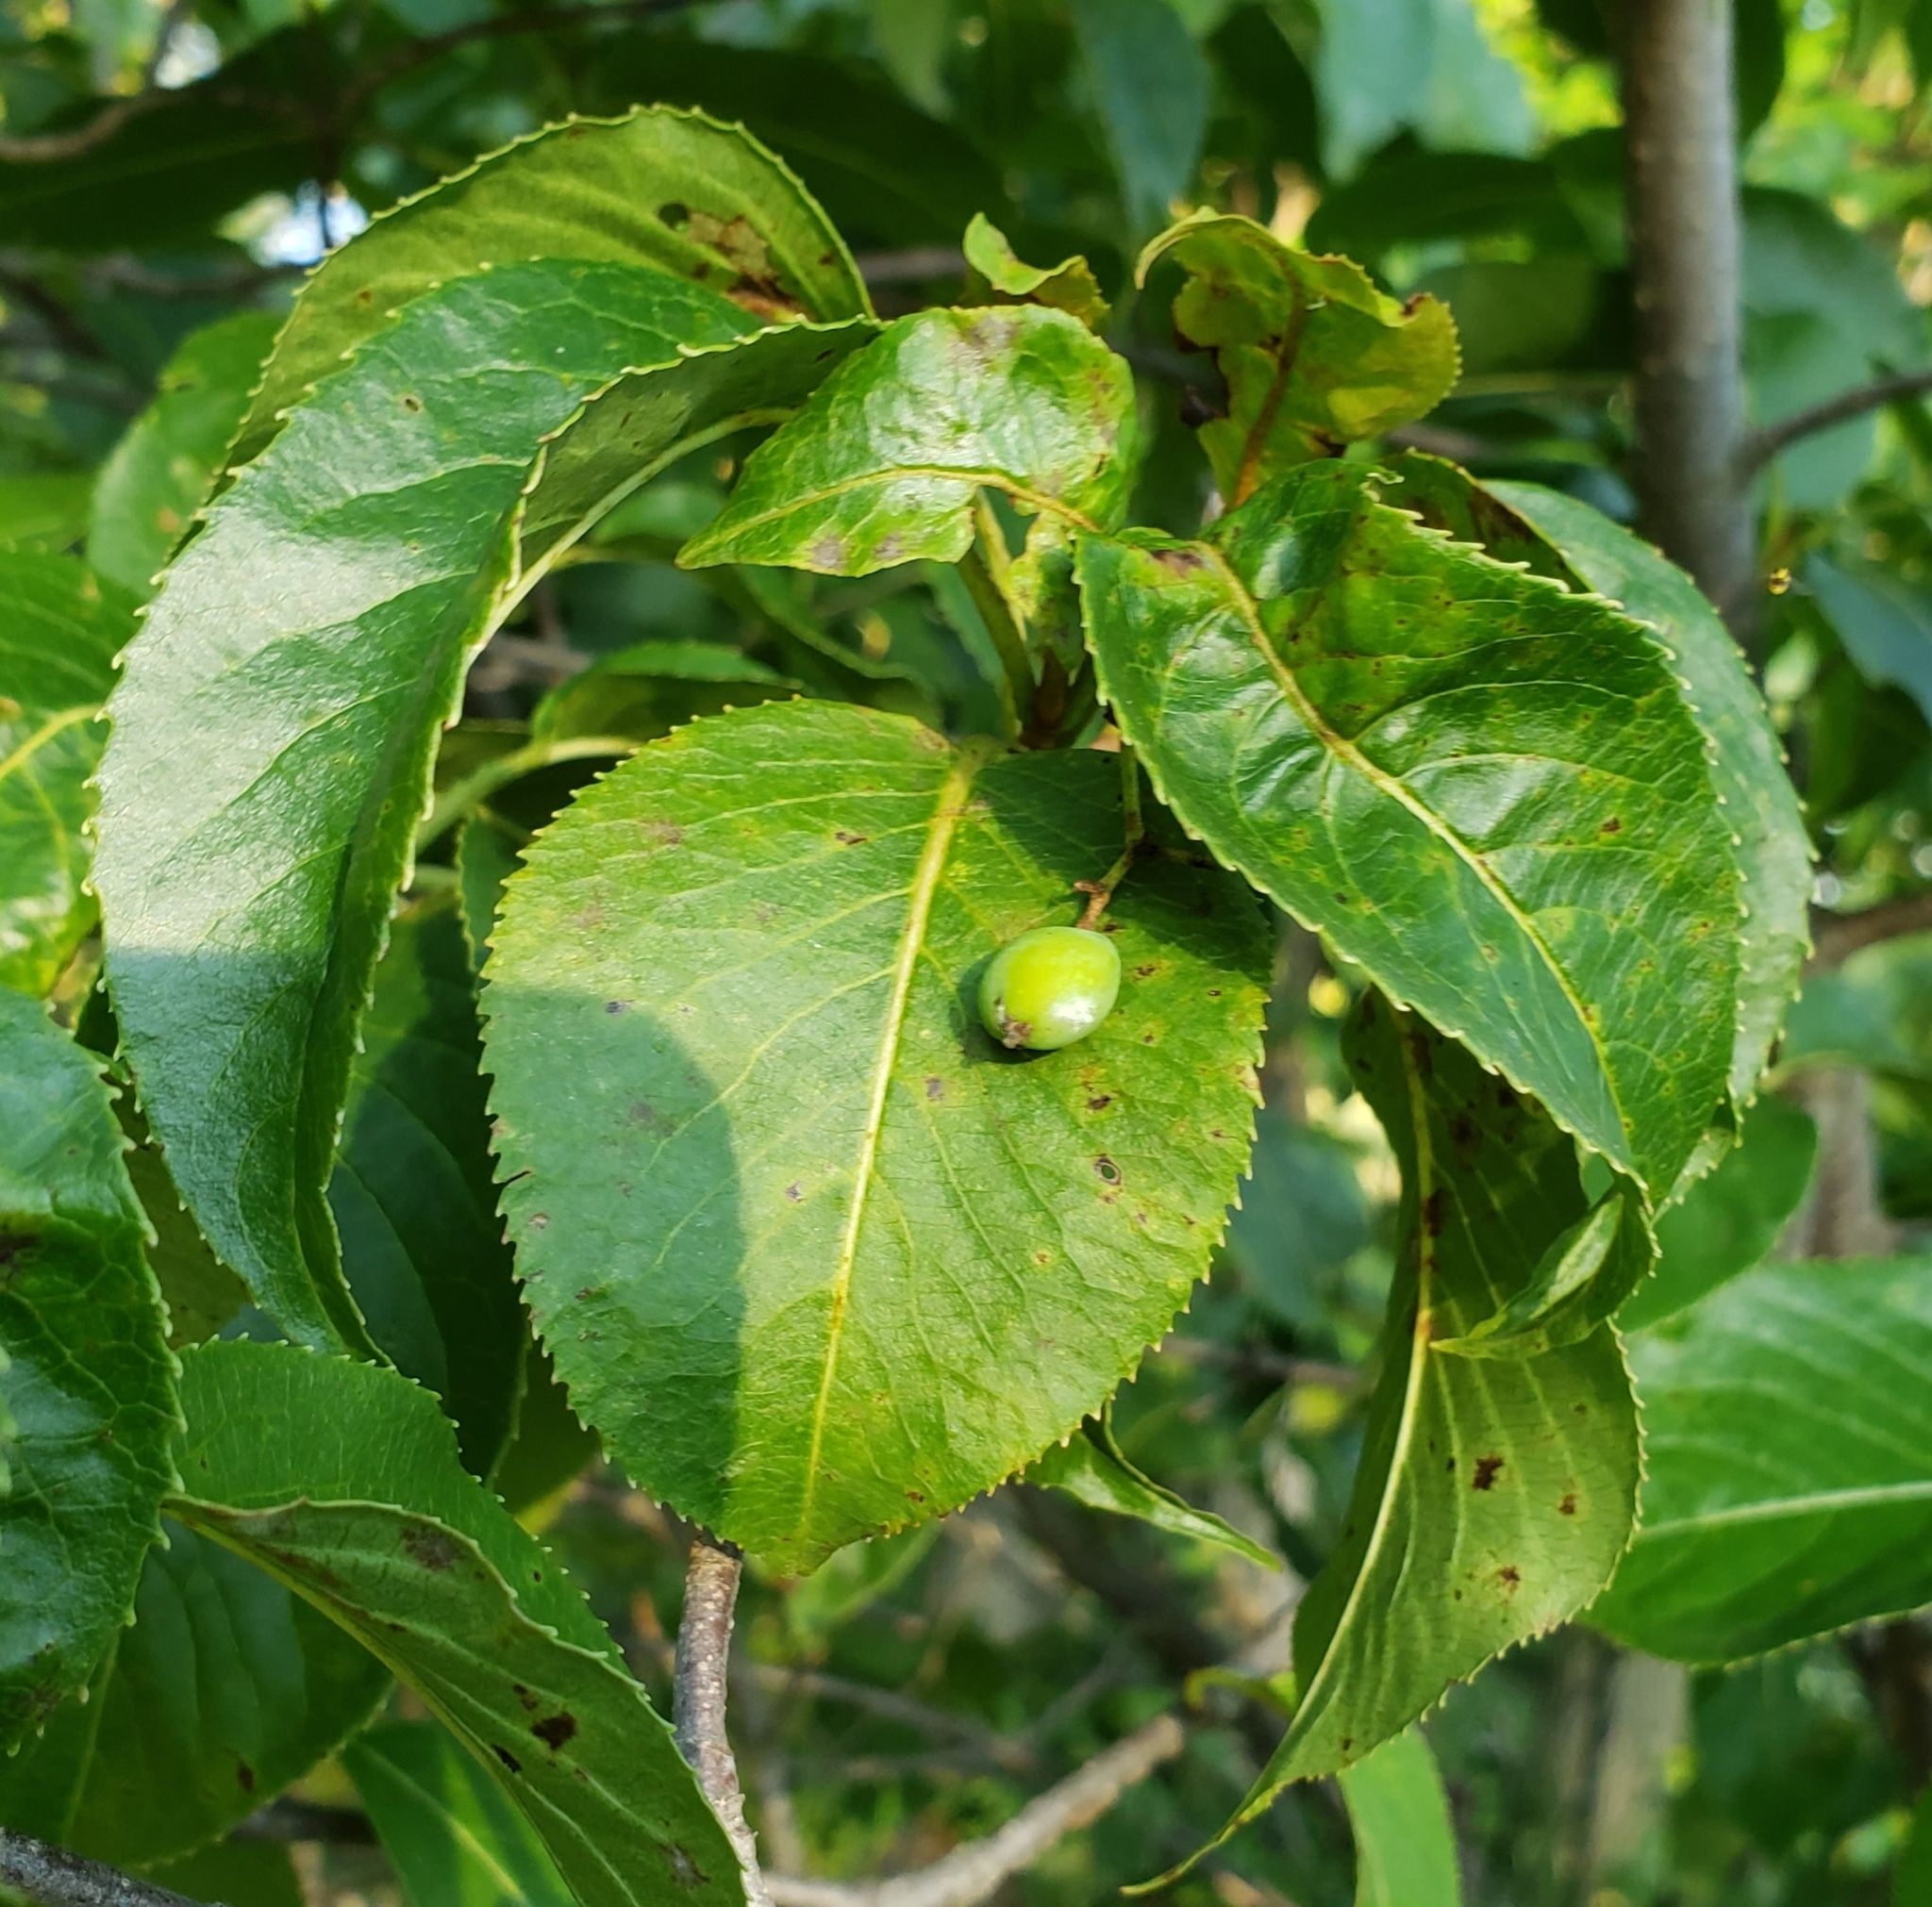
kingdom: Plantae
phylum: Tracheophyta
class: Magnoliopsida
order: Dipsacales
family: Viburnaceae
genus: Viburnum
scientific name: Viburnum lentago
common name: Black haw
